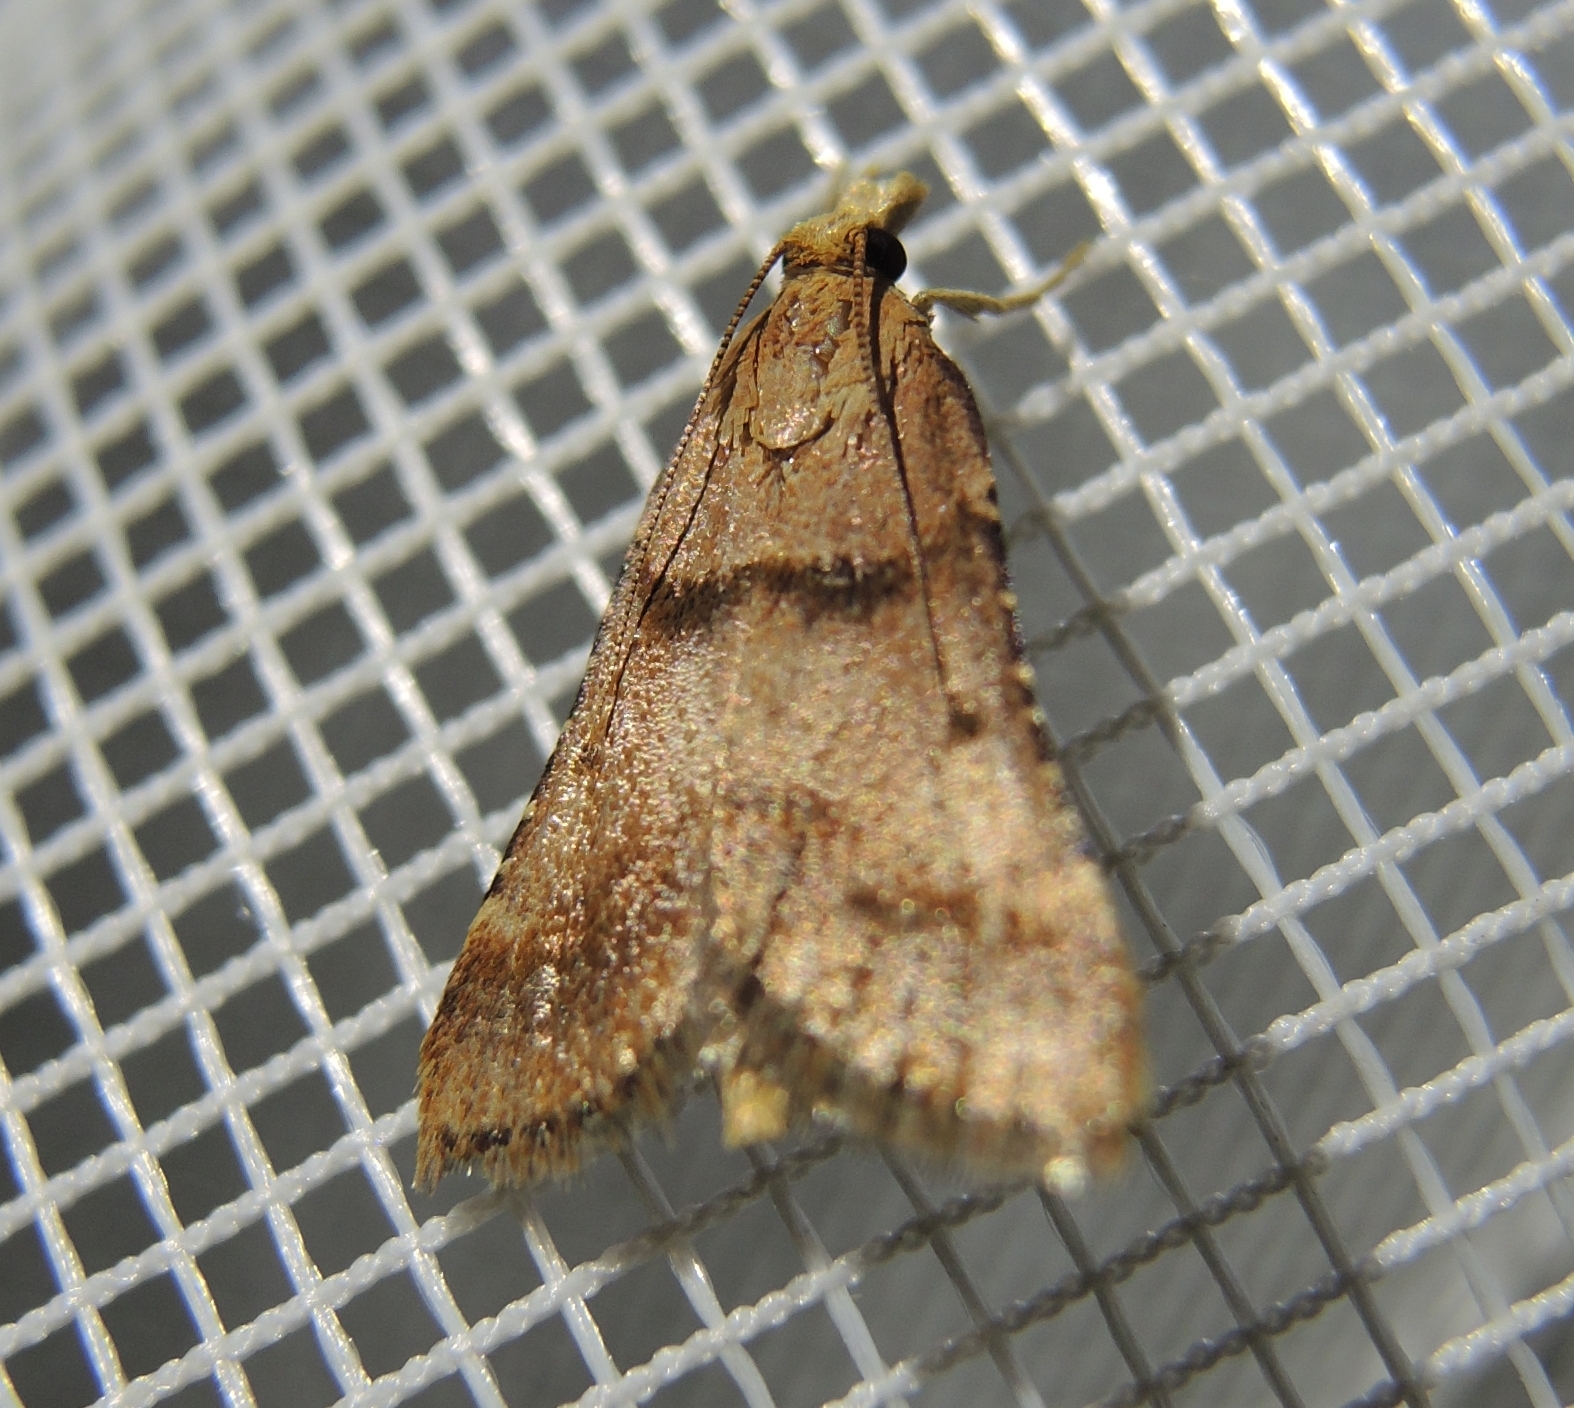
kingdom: Animalia
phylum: Arthropoda
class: Insecta
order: Lepidoptera
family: Pyralidae
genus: Stemmatophora
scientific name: Stemmatophora brunnealis
